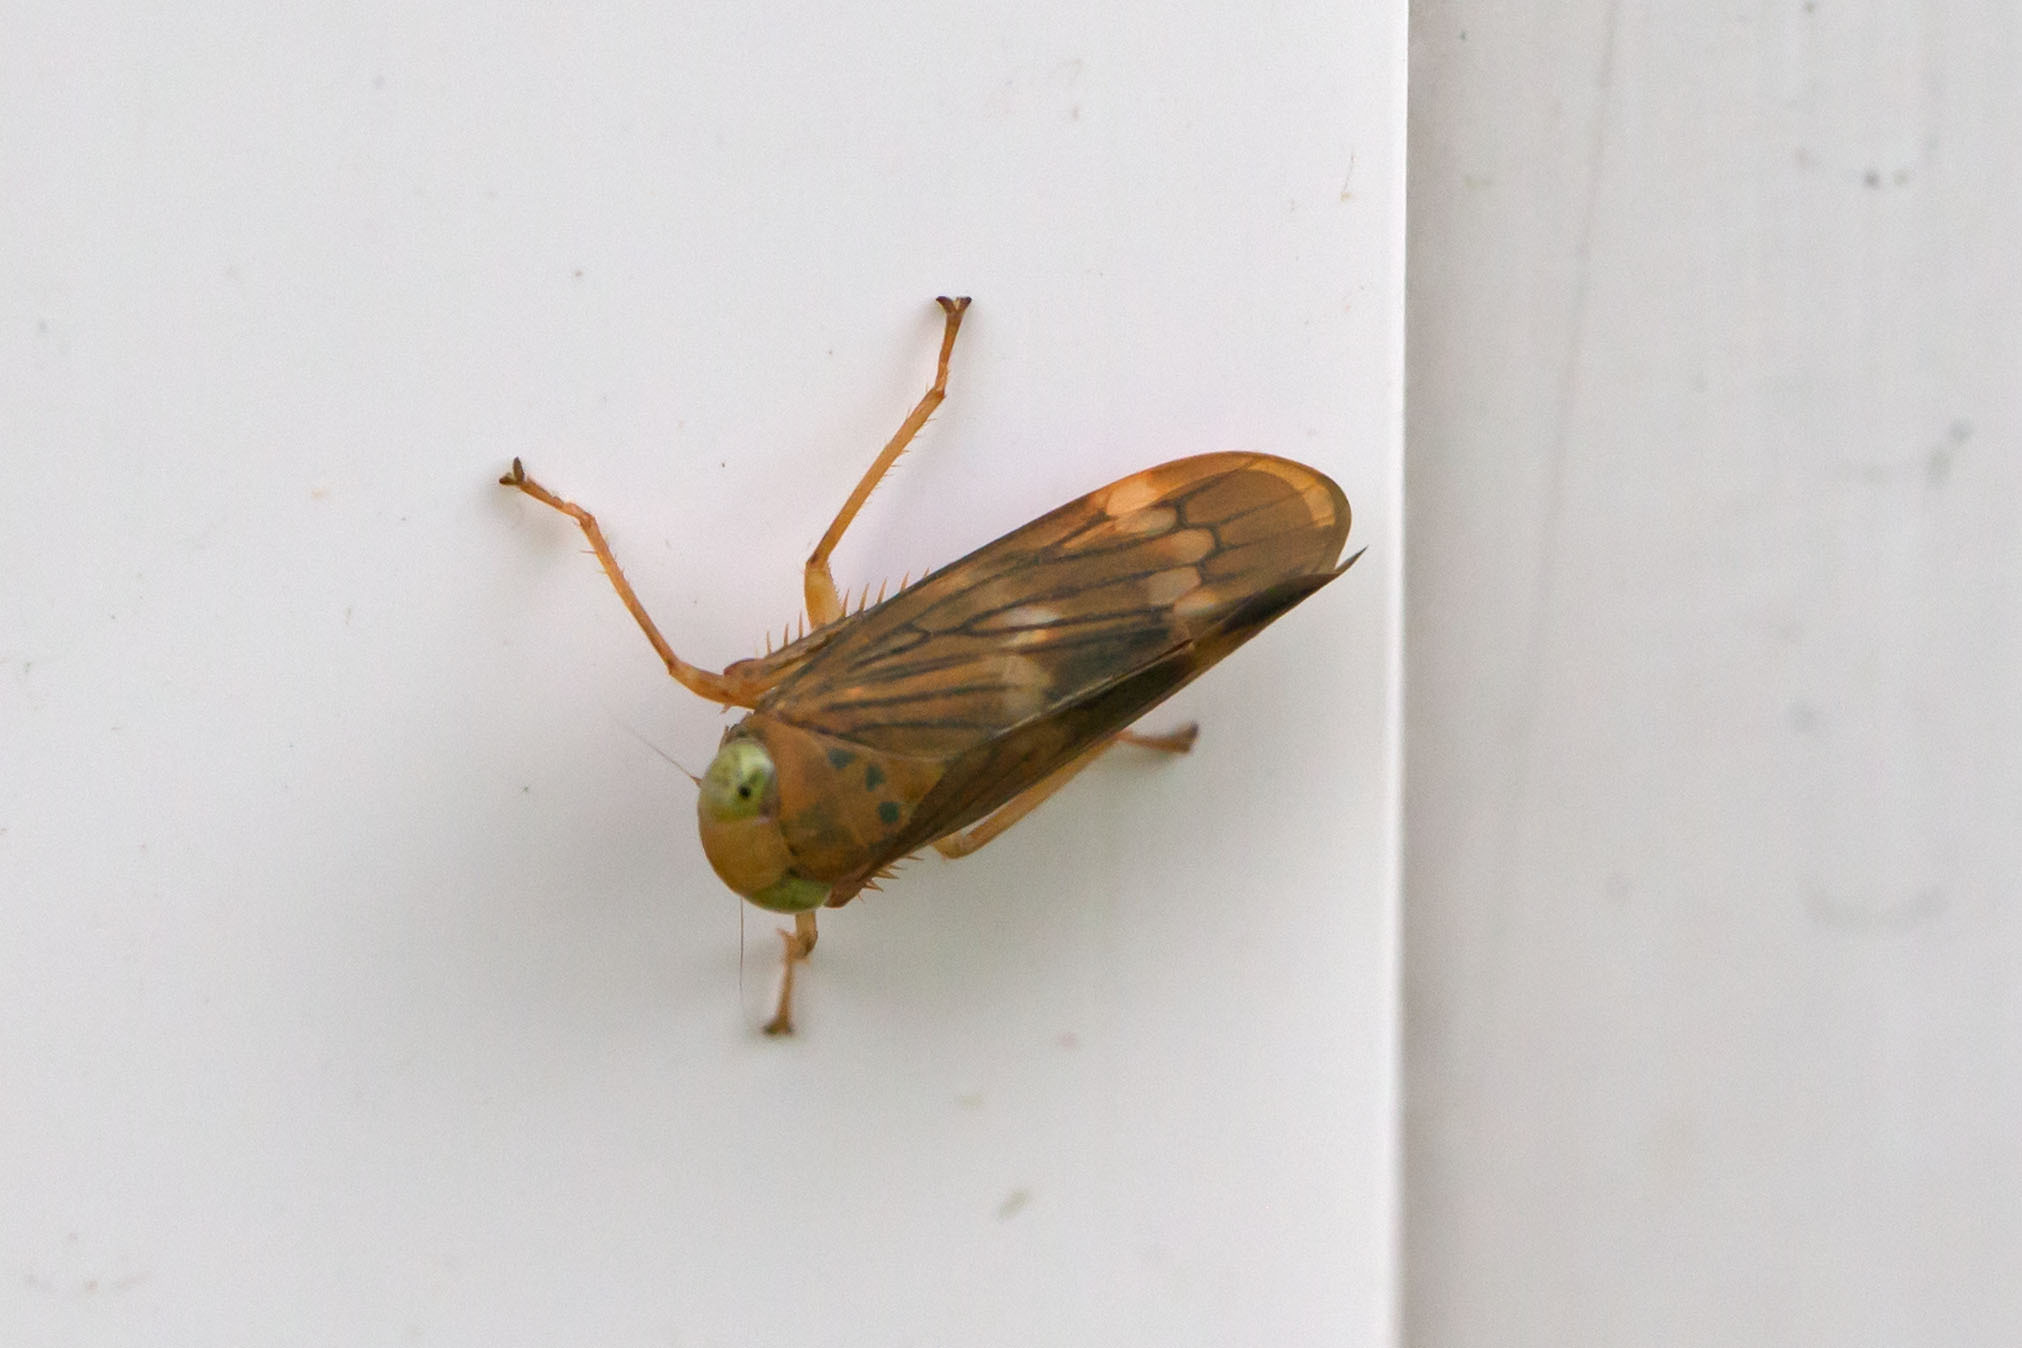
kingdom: Animalia
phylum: Arthropoda
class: Insecta
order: Hemiptera
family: Cicadellidae
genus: Jikradia
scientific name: Jikradia olitoria
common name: Coppery leafhopper
